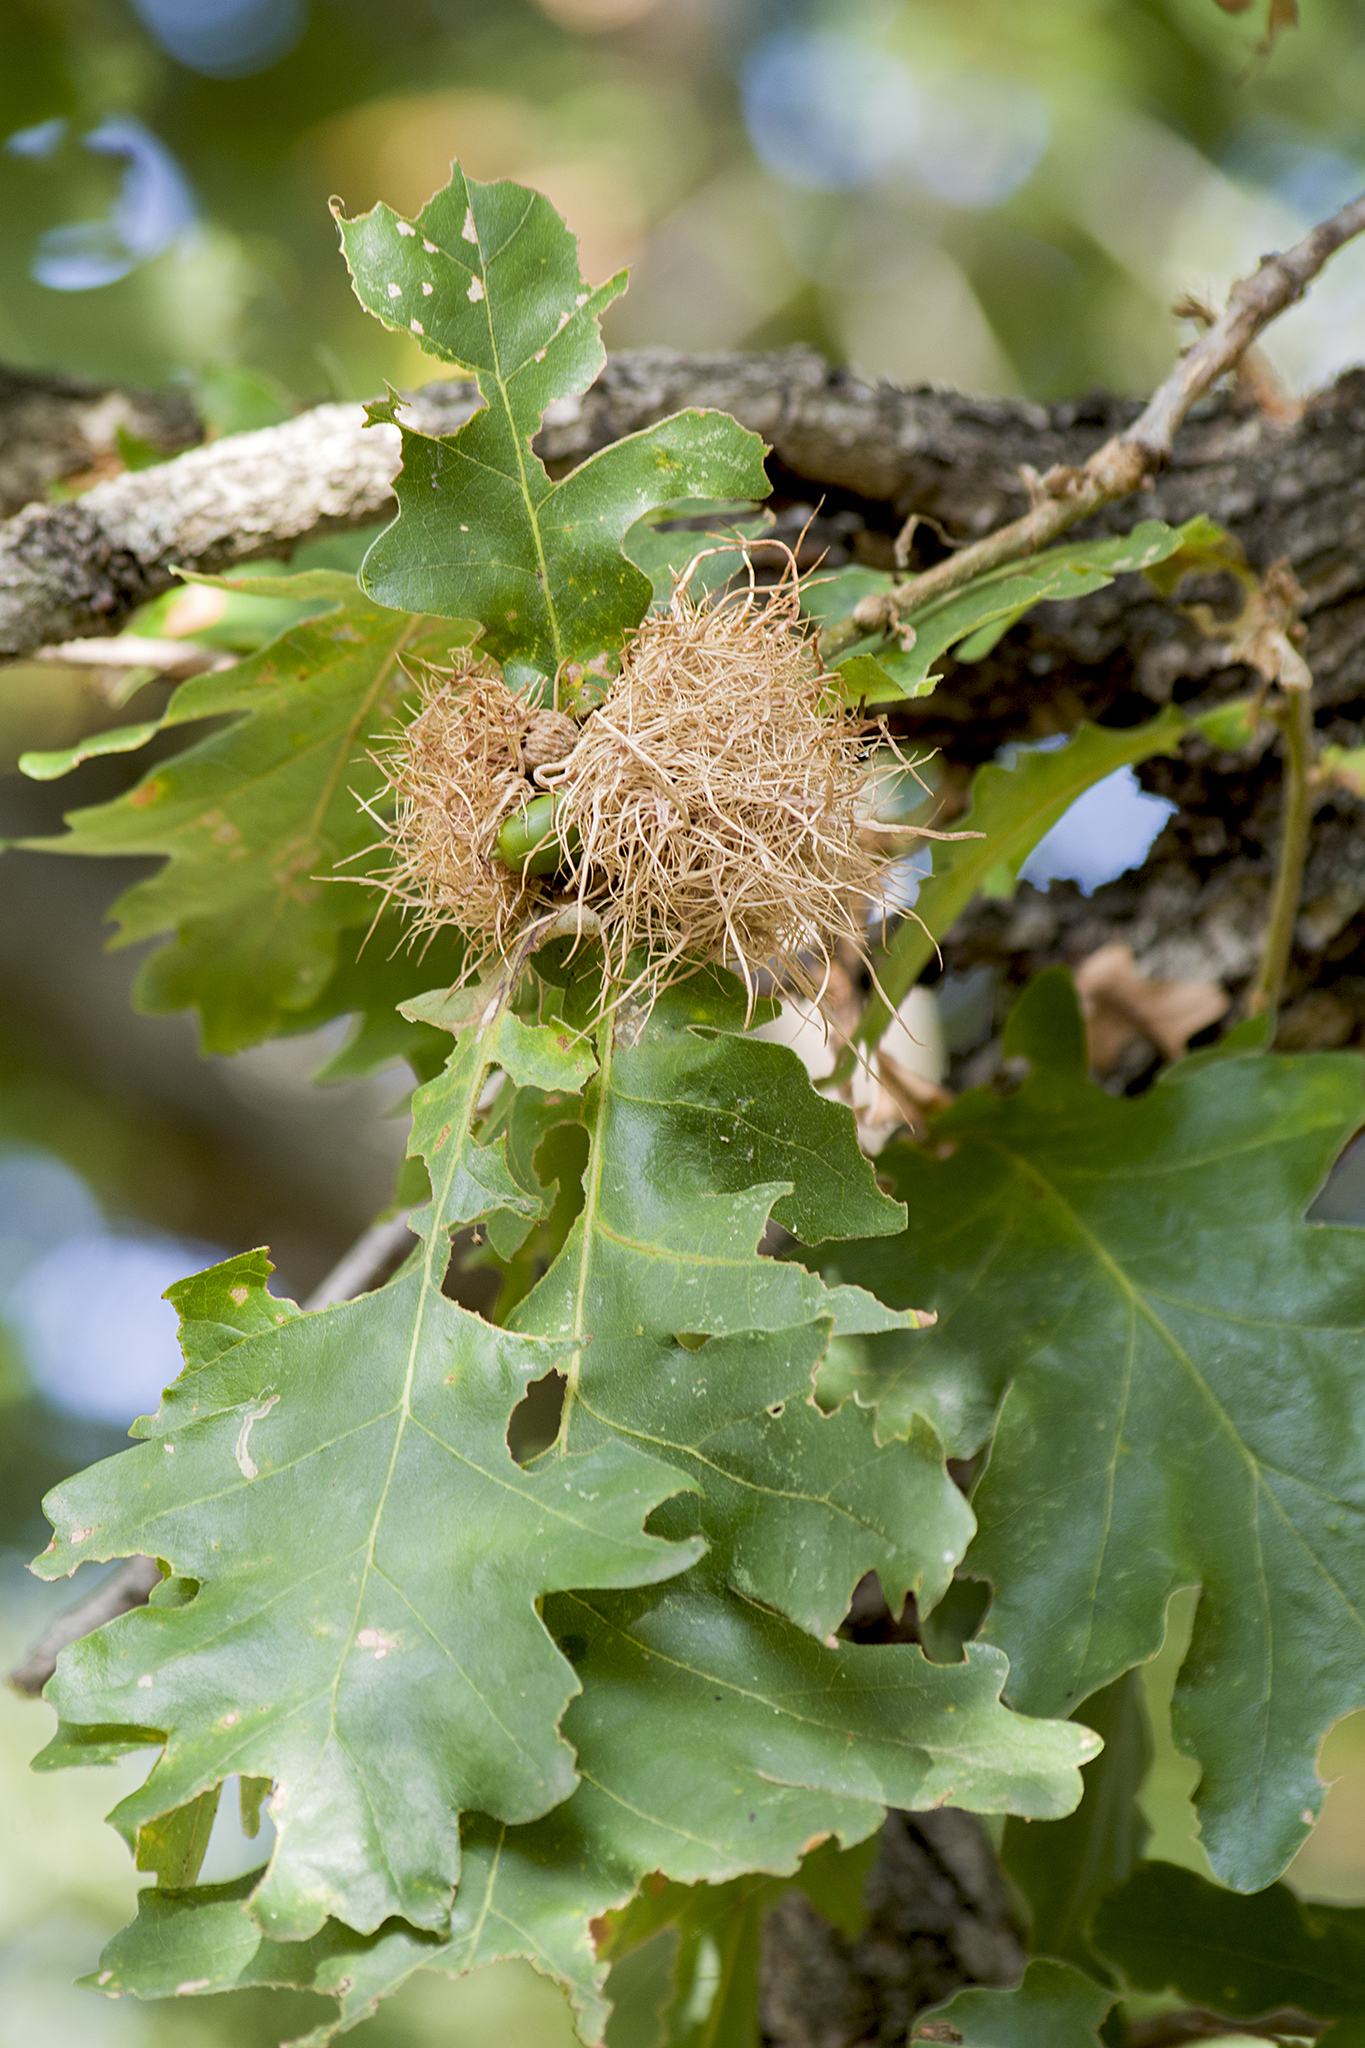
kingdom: Animalia
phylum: Arthropoda
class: Insecta
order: Hymenoptera
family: Cynipidae
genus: Andricus
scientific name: Andricus caputmedusae
